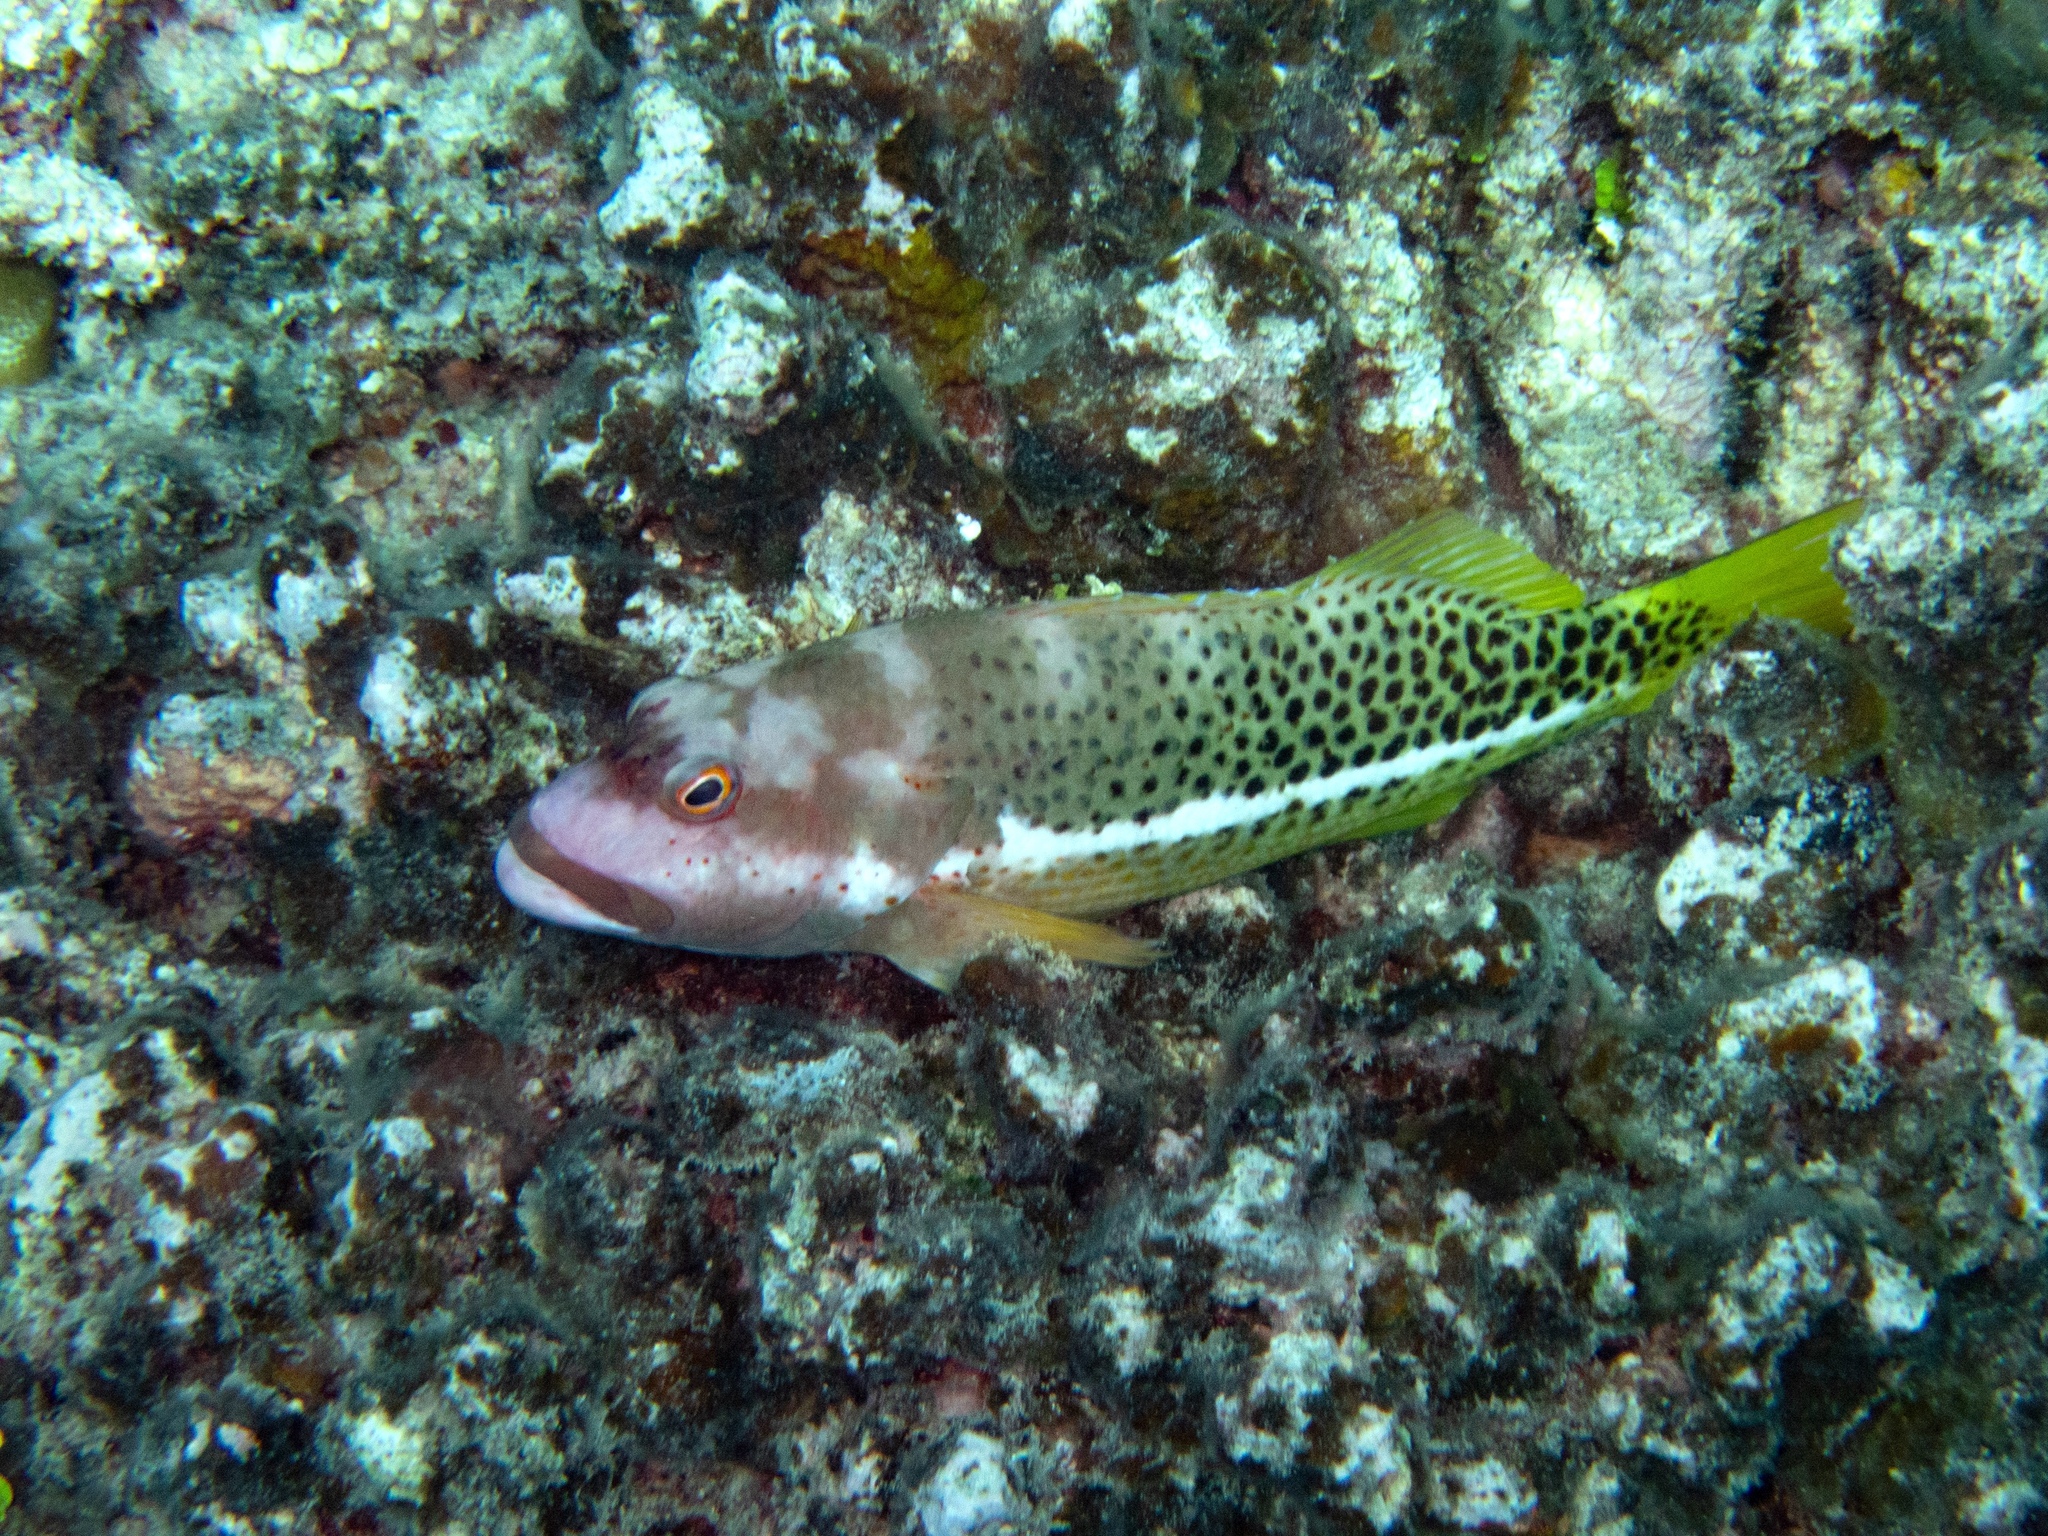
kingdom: Animalia
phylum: Chordata
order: Perciformes
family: Cirrhitidae
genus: Paracirrhites
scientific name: Paracirrhites hemistictus
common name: Halfspotted hawkfish
